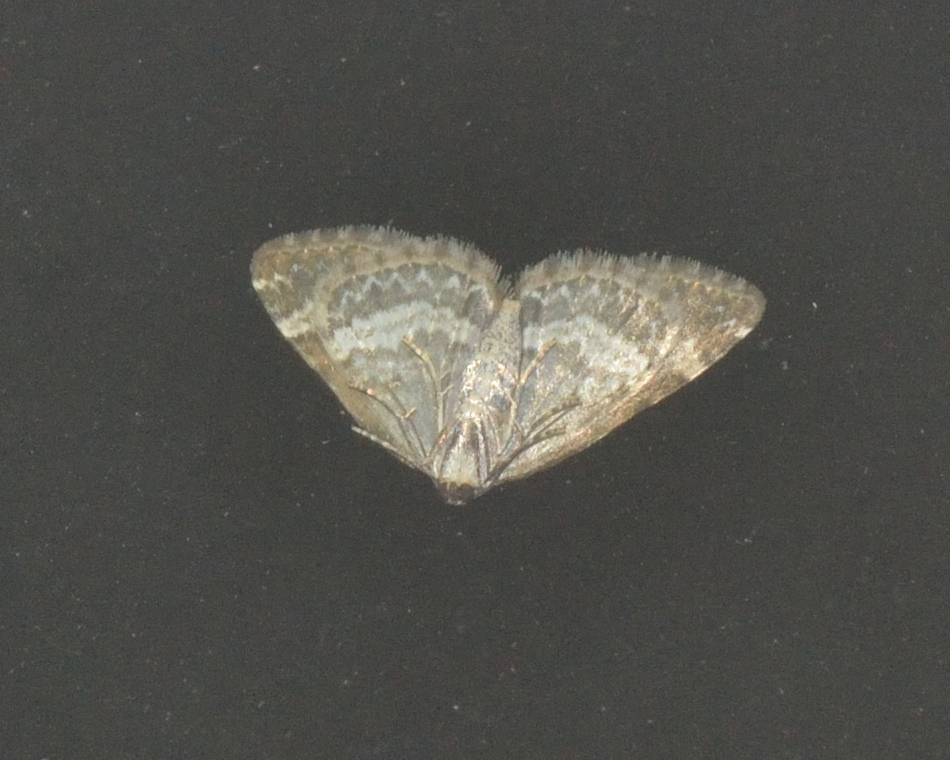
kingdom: Animalia
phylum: Arthropoda
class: Insecta
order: Lepidoptera
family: Geometridae
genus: Perizoma
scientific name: Perizoma alchemillata
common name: Small rivulet
